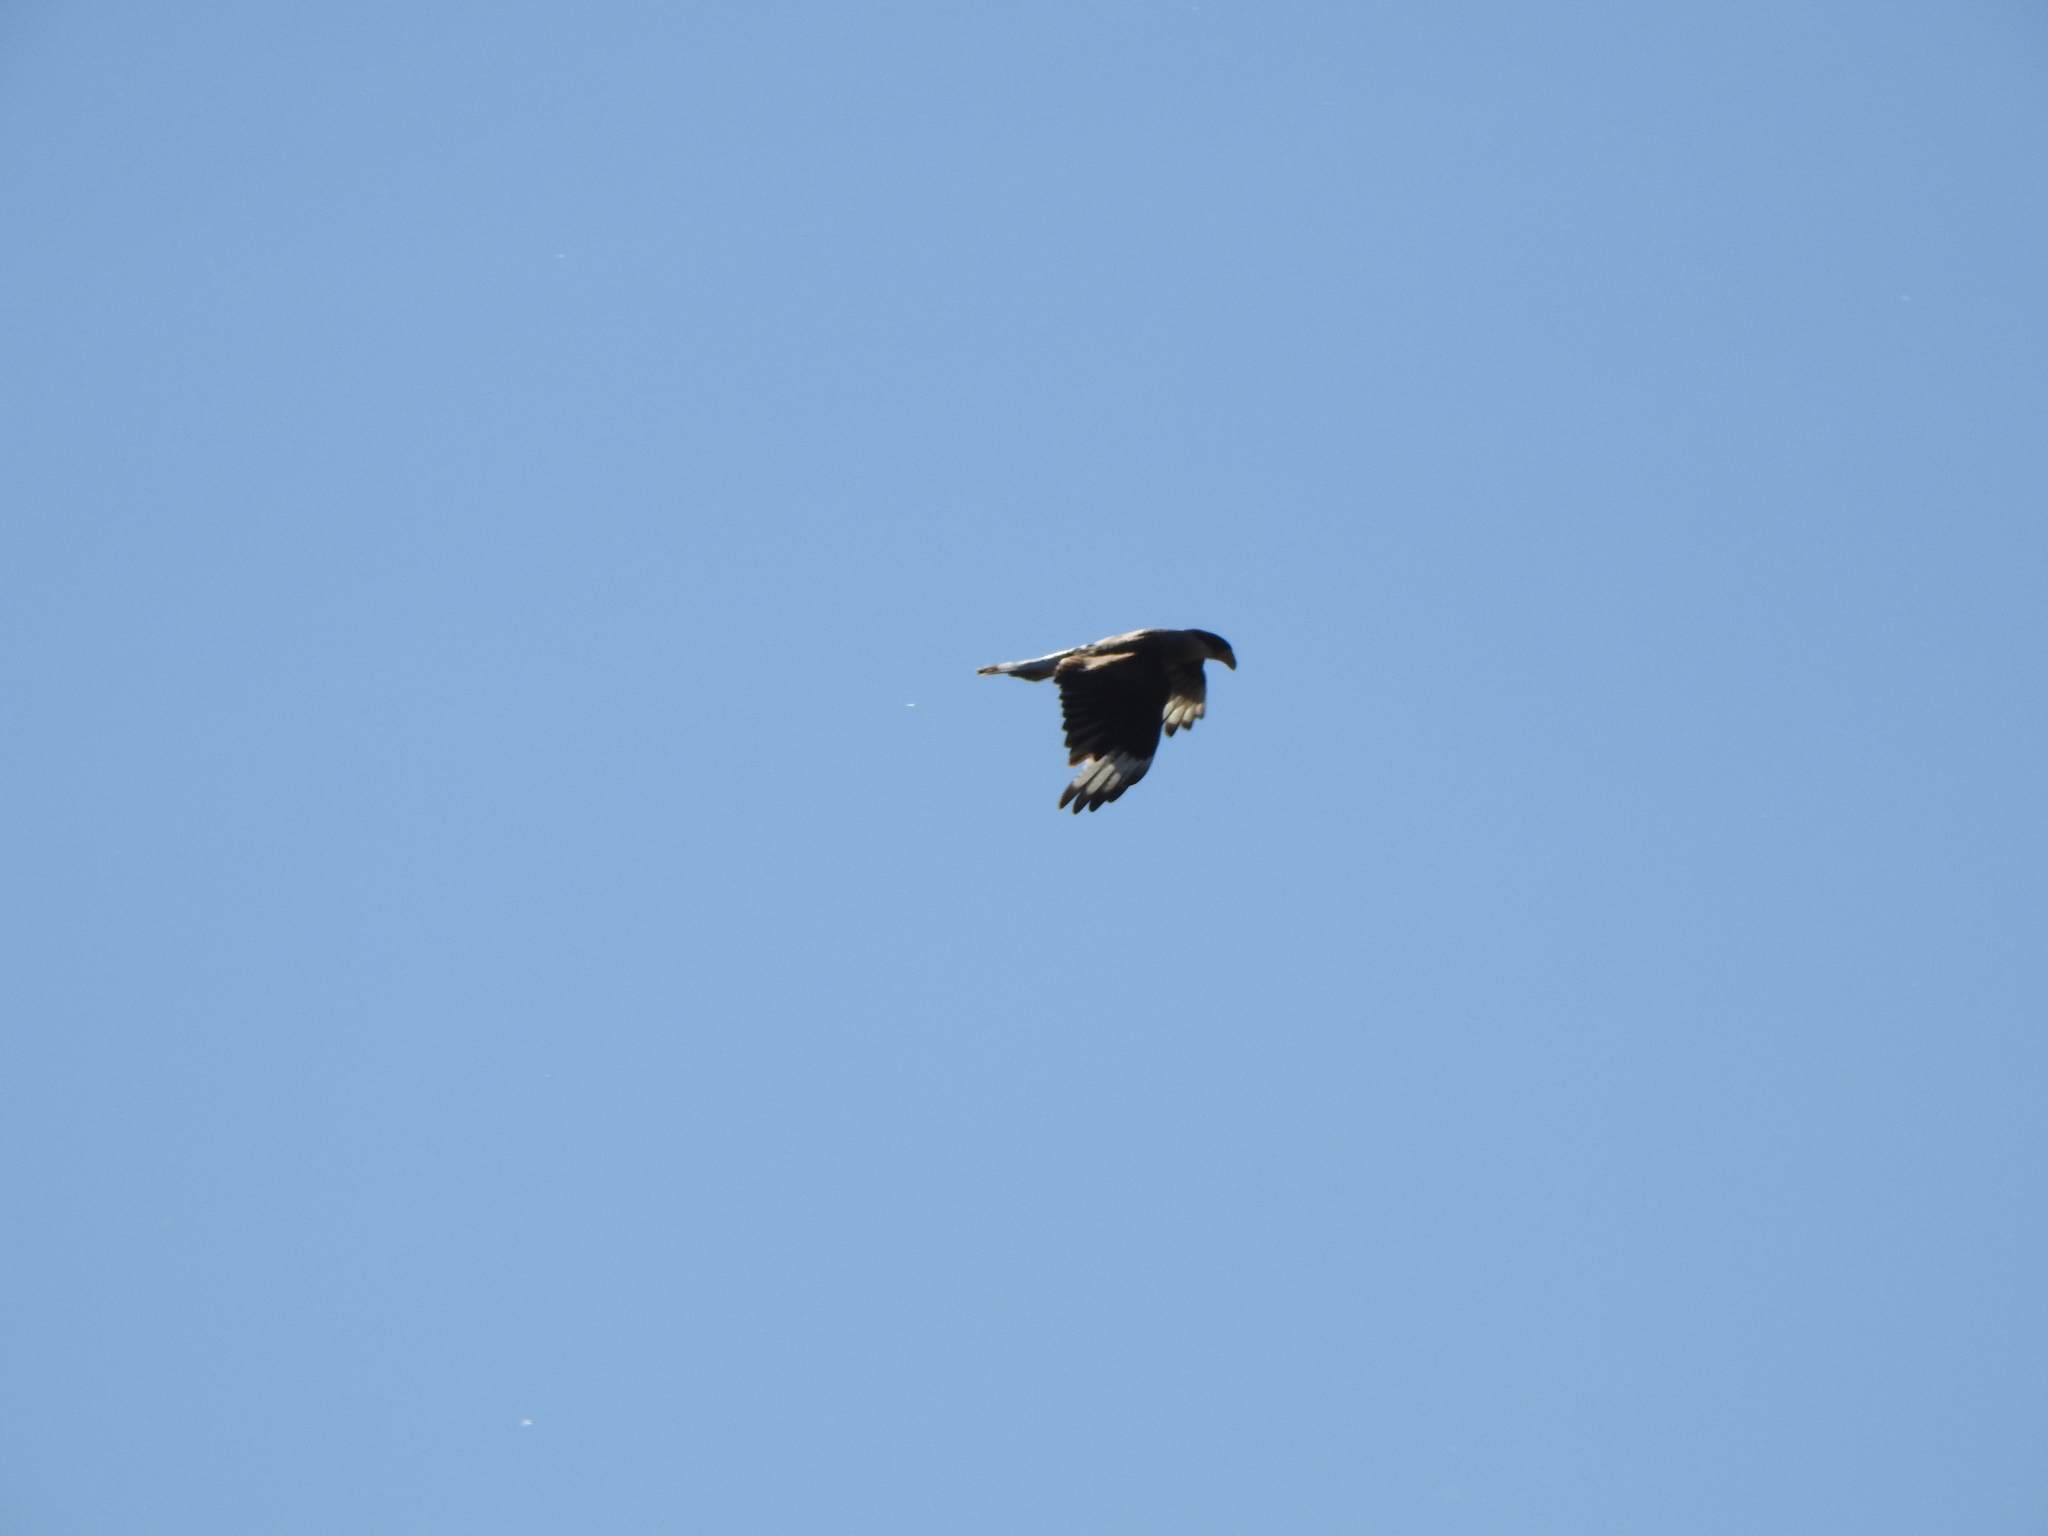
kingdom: Animalia
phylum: Chordata
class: Aves
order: Falconiformes
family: Falconidae
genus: Caracara
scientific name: Caracara plancus
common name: Southern caracara
